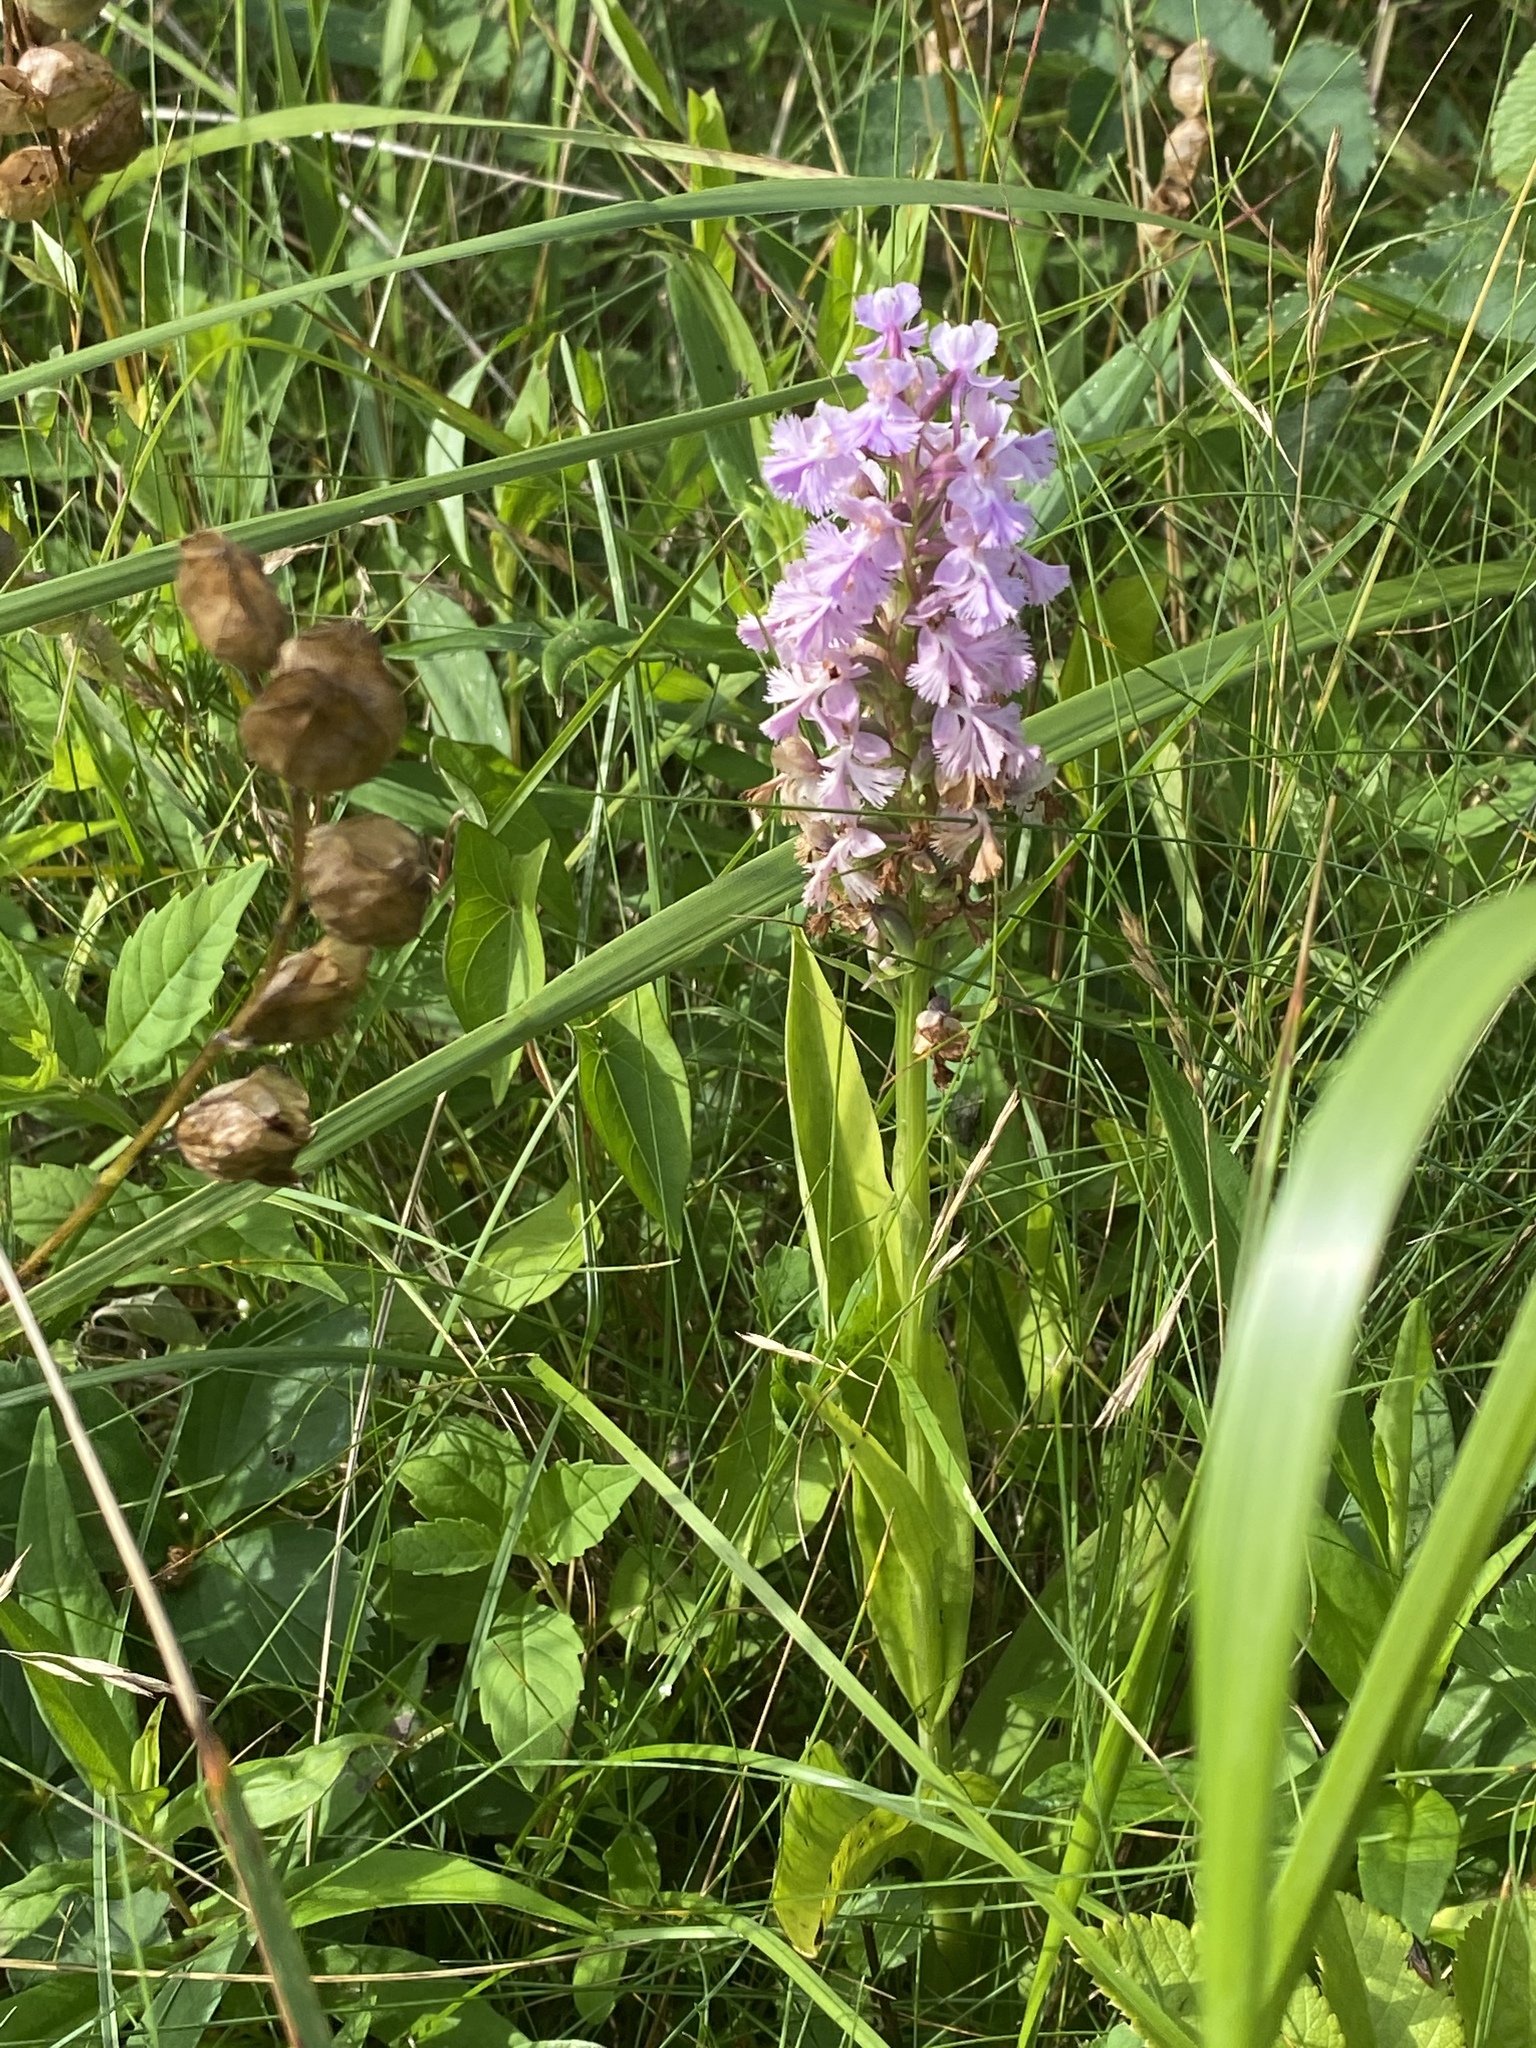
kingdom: Plantae
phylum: Tracheophyta
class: Liliopsida
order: Asparagales
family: Orchidaceae
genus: Platanthera
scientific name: Platanthera psycodes
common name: Lesser purple fringed orchid
